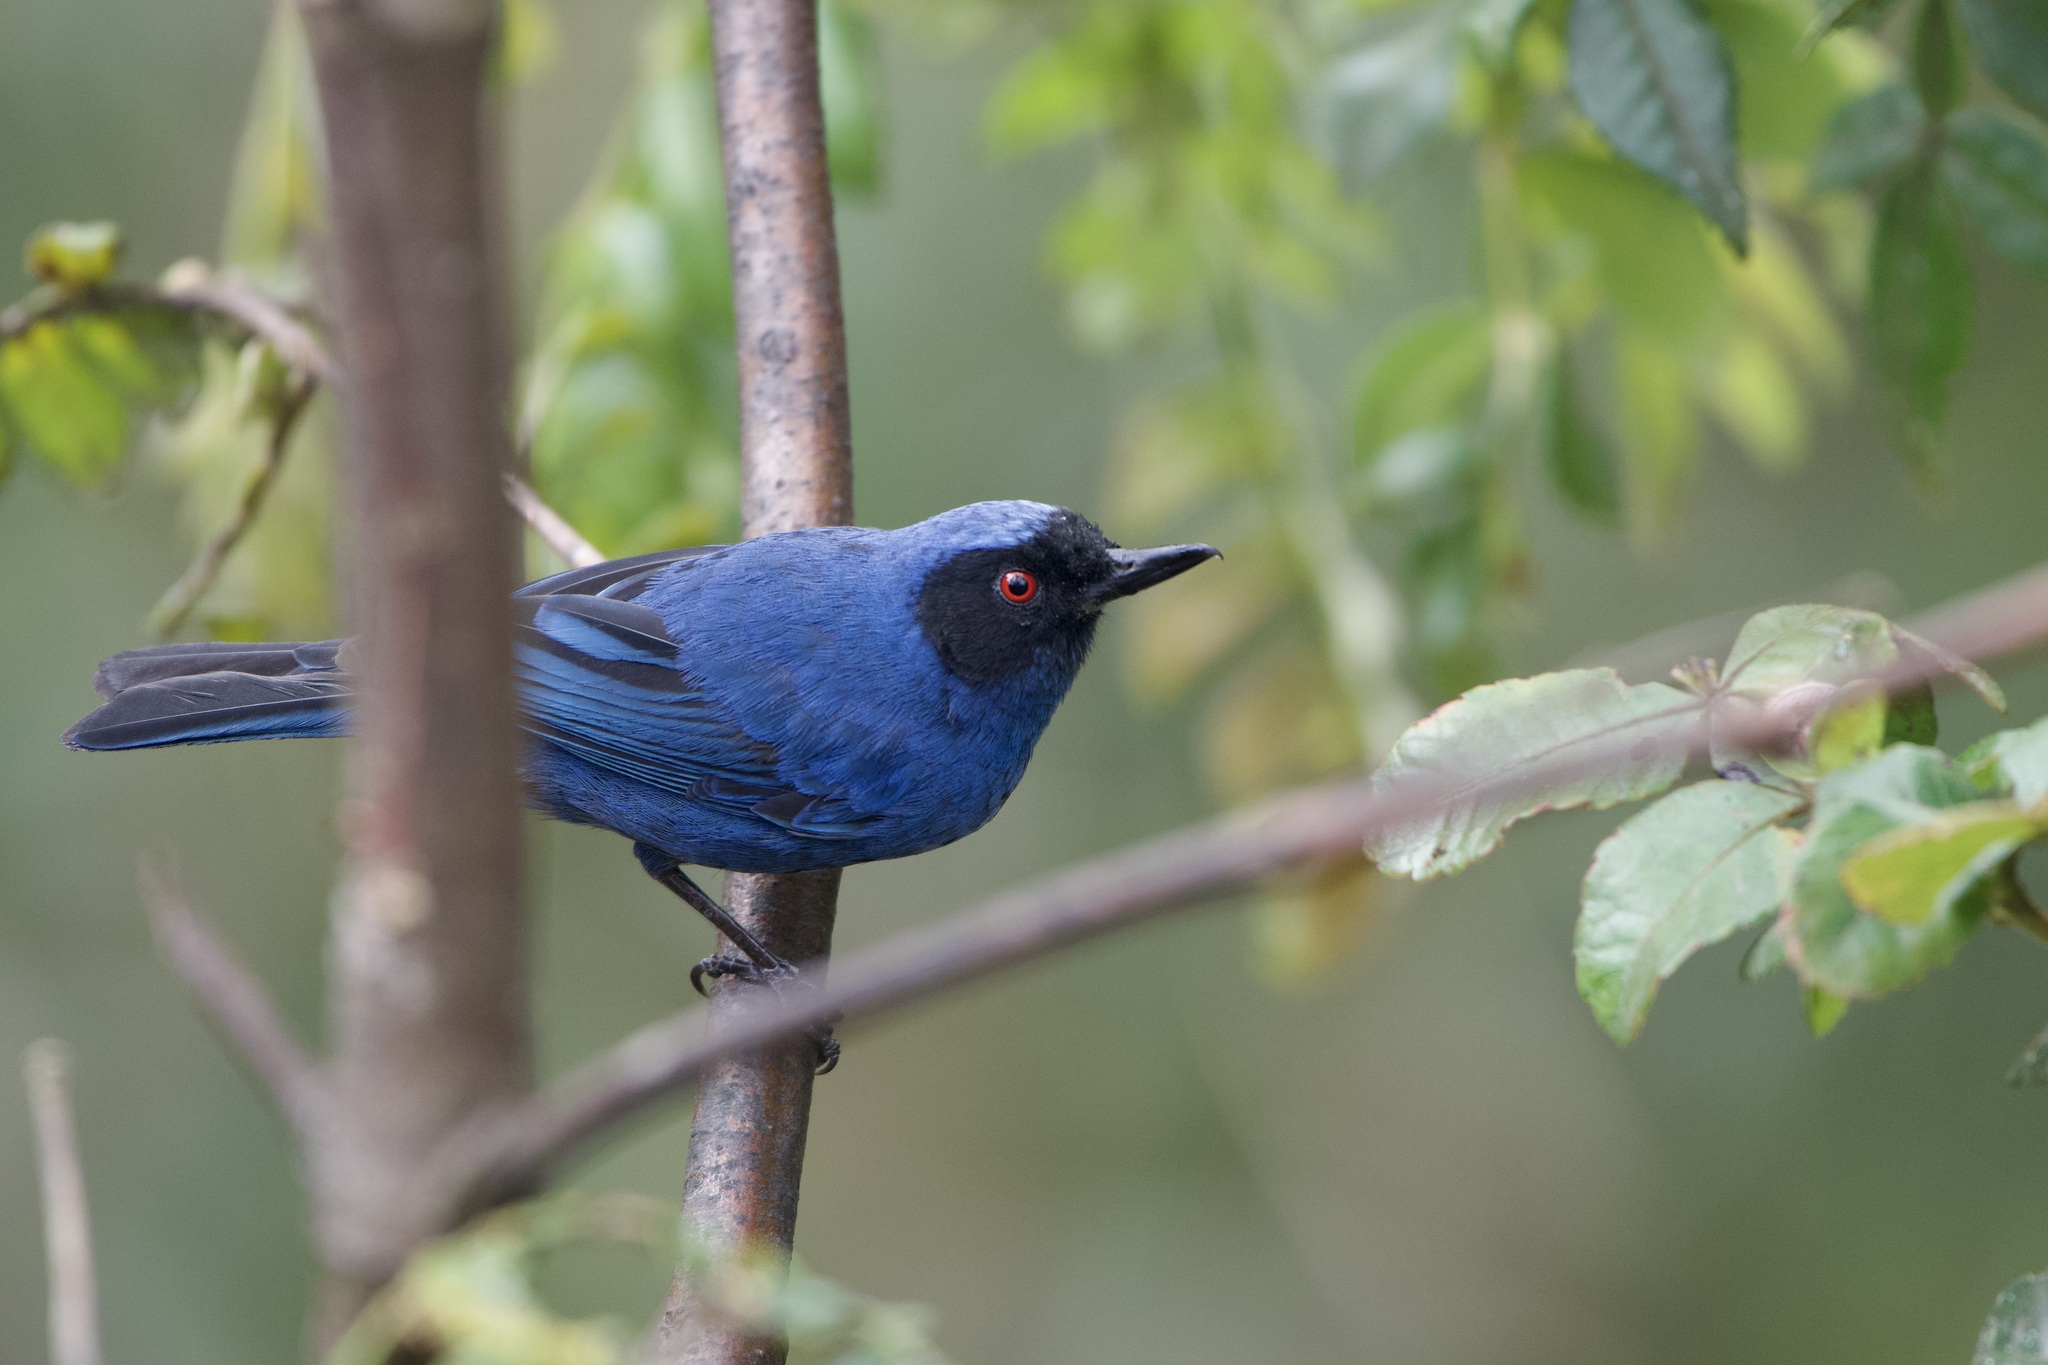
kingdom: Animalia
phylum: Chordata
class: Aves
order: Passeriformes
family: Thraupidae
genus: Diglossa
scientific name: Diglossa cyanea
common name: Masked flowerpiercer
